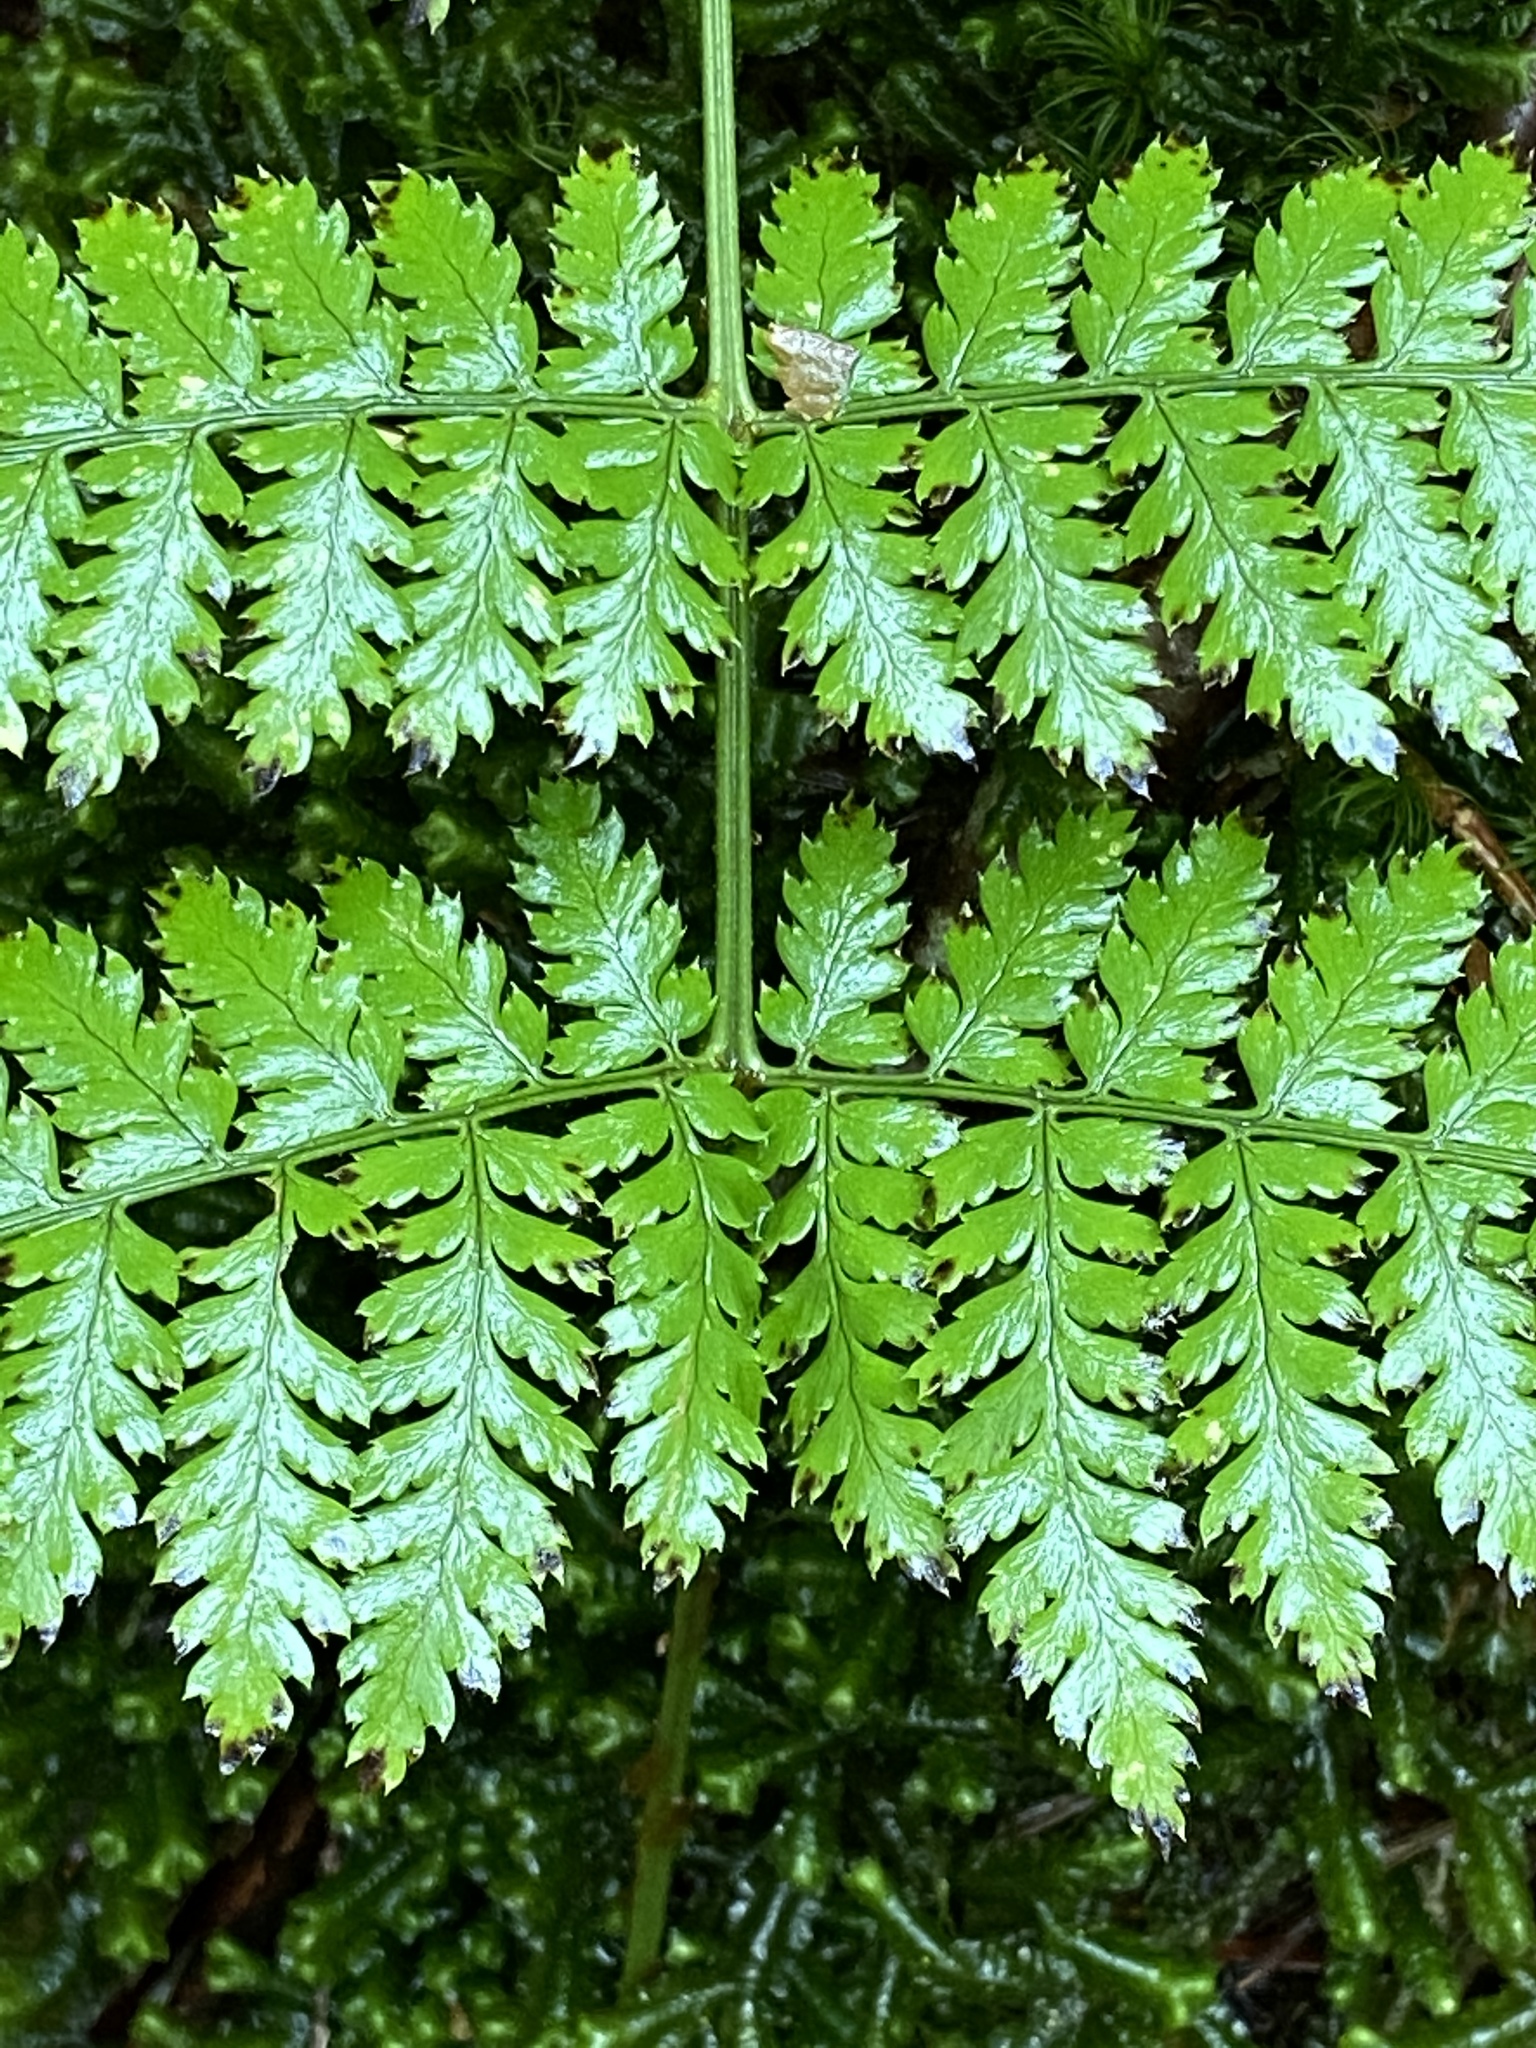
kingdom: Plantae
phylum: Tracheophyta
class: Polypodiopsida
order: Polypodiales
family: Dryopteridaceae
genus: Dryopteris
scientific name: Dryopteris intermedia
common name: Evergreen wood fern
